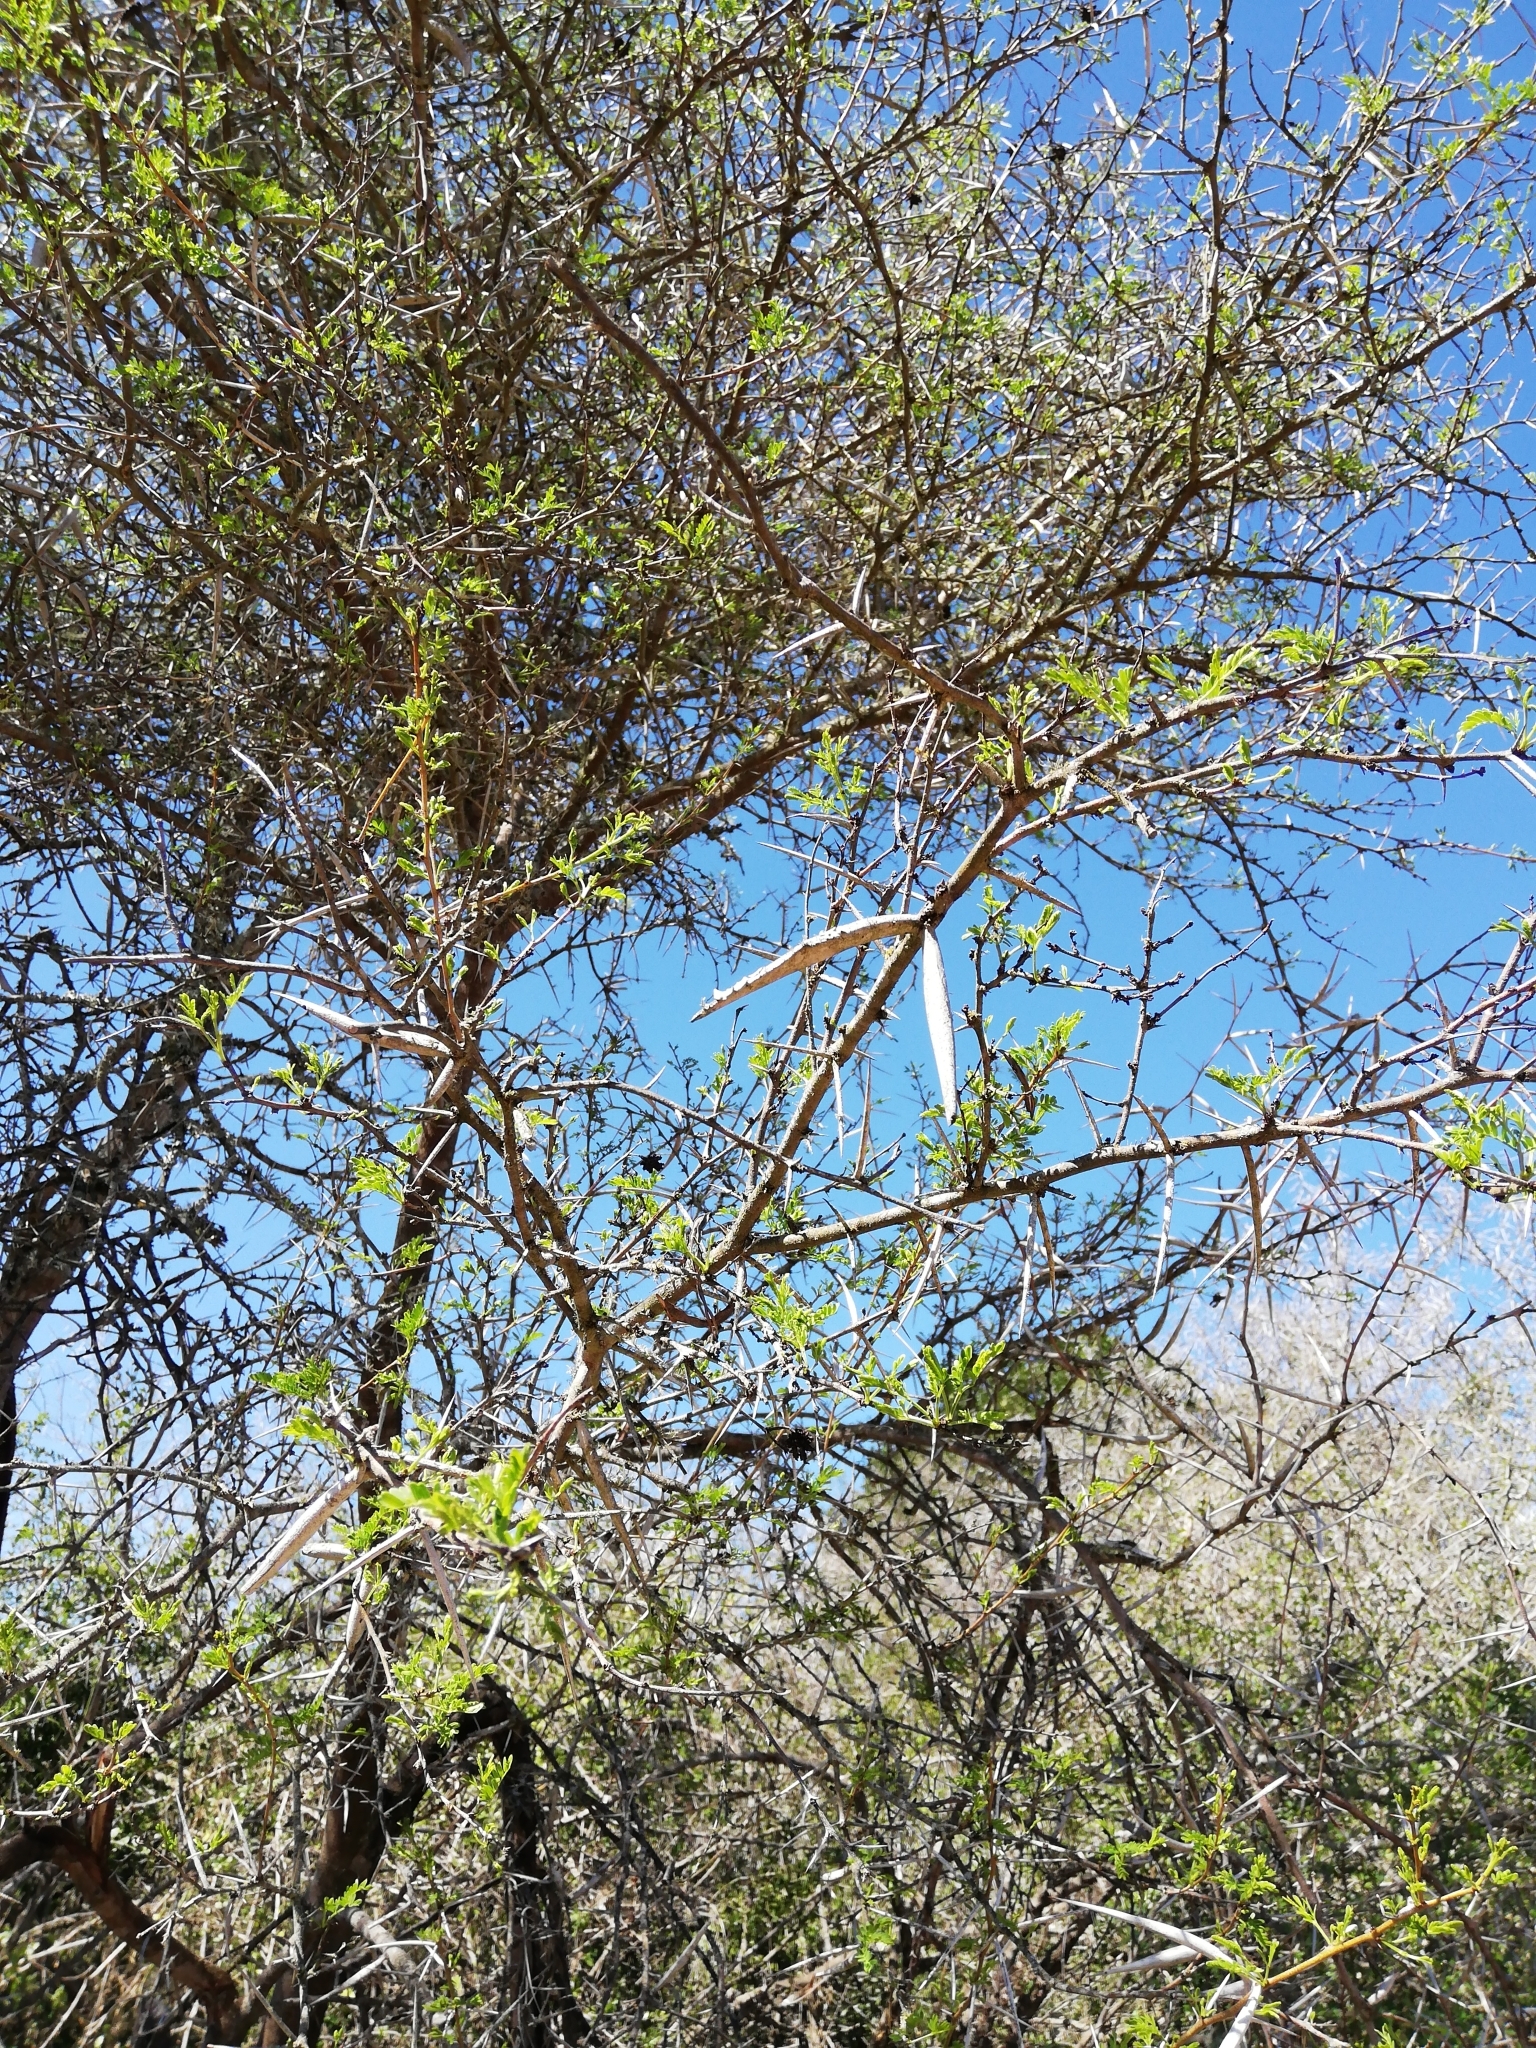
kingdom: Plantae
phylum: Tracheophyta
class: Magnoliopsida
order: Fabales
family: Fabaceae
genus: Vachellia
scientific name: Vachellia karroo
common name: Sweet thorn
